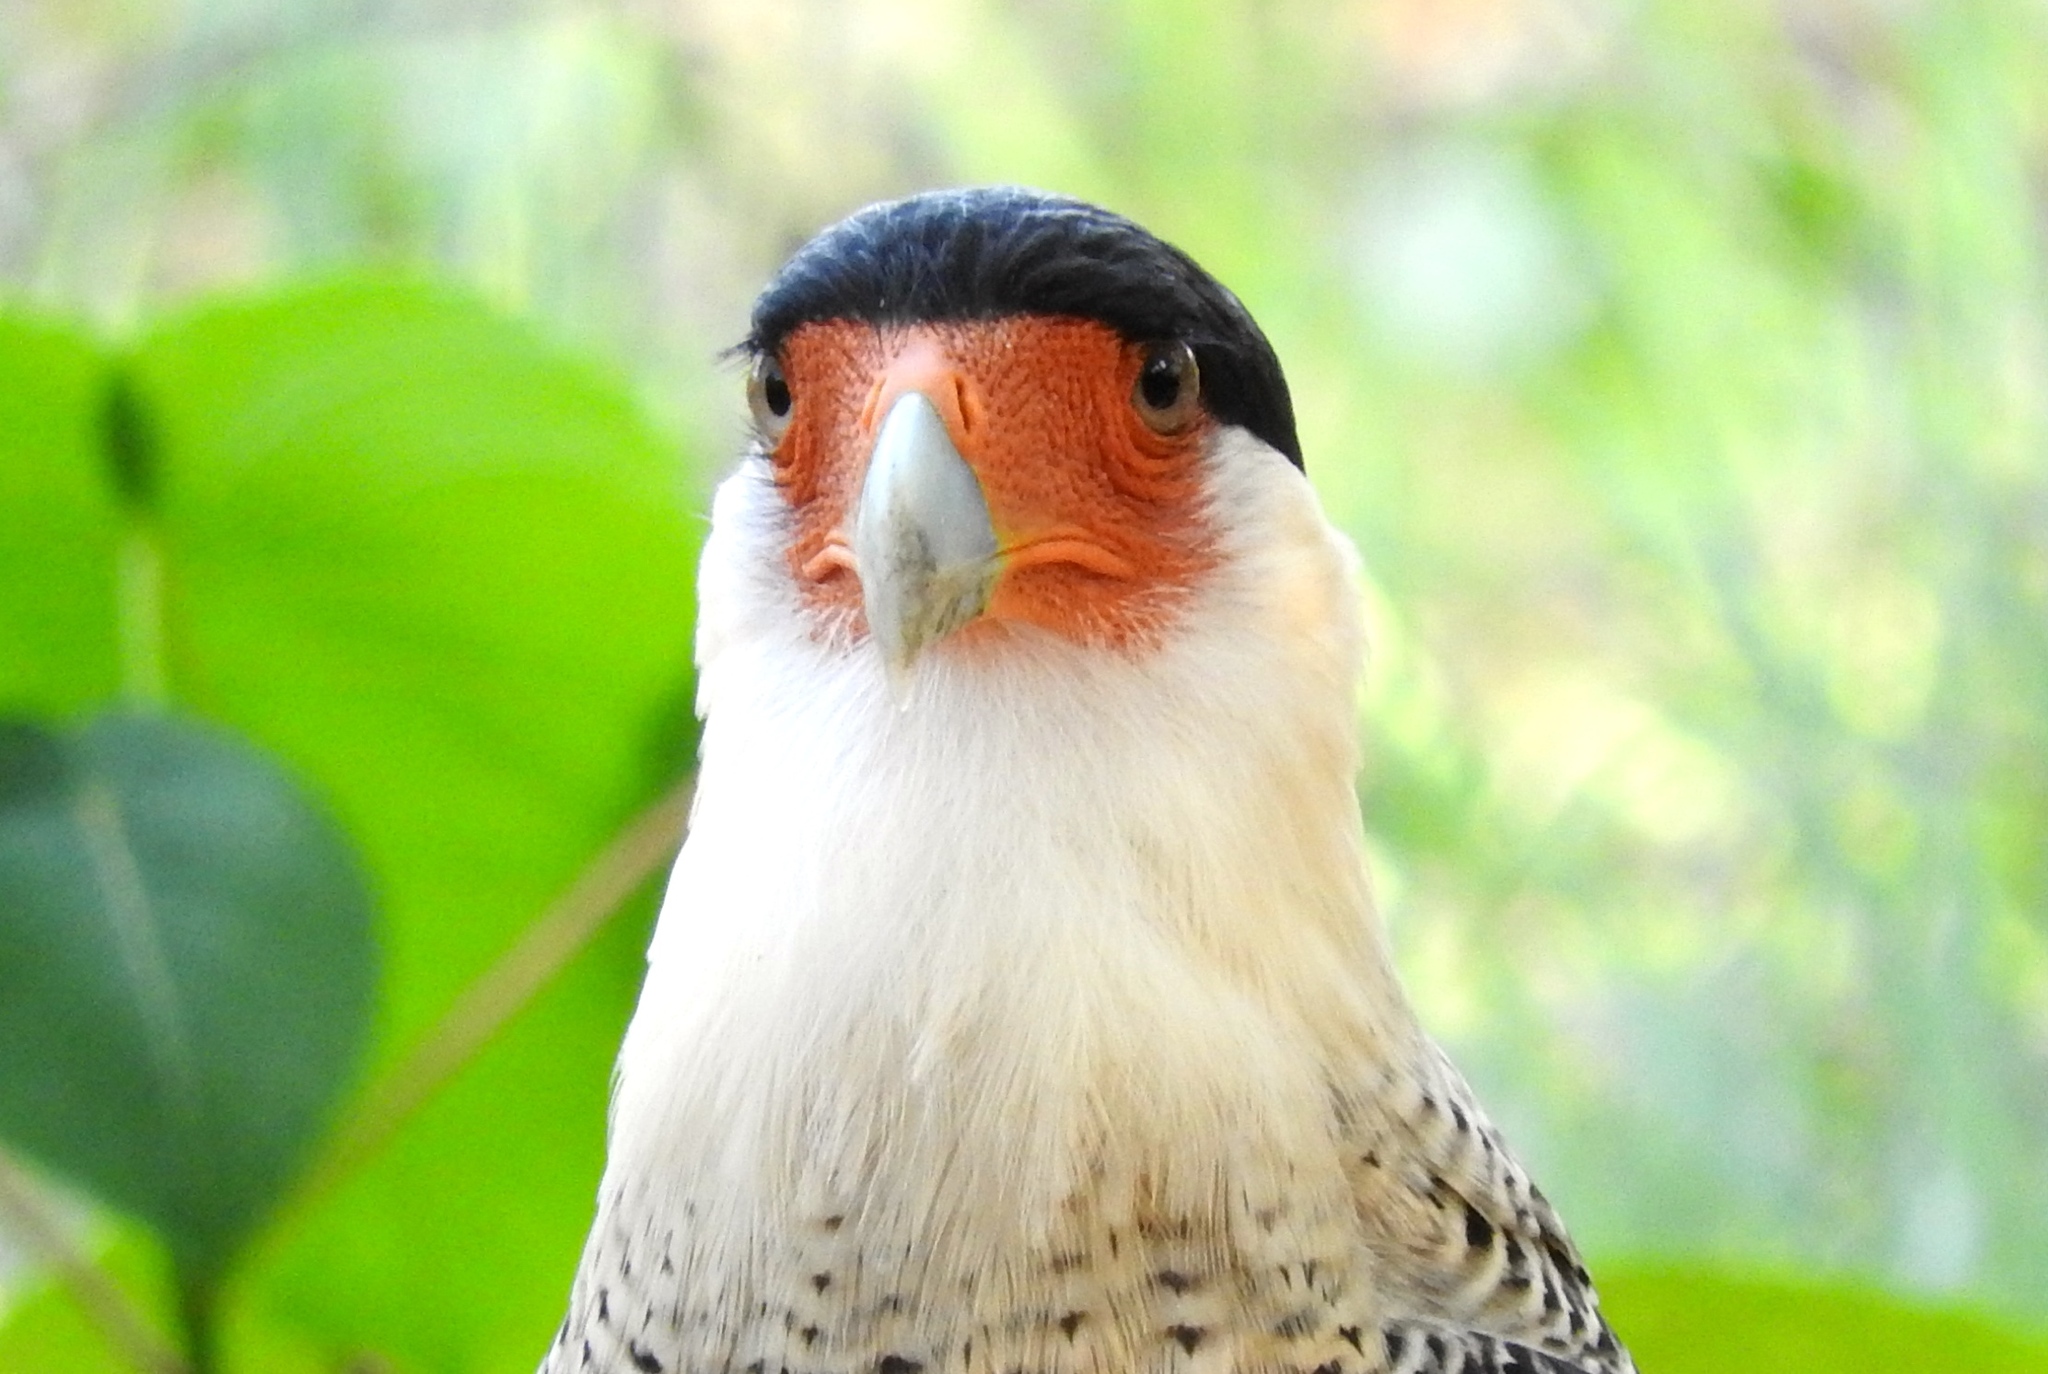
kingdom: Animalia
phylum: Chordata
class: Aves
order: Falconiformes
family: Falconidae
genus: Caracara
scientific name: Caracara plancus
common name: Southern caracara
